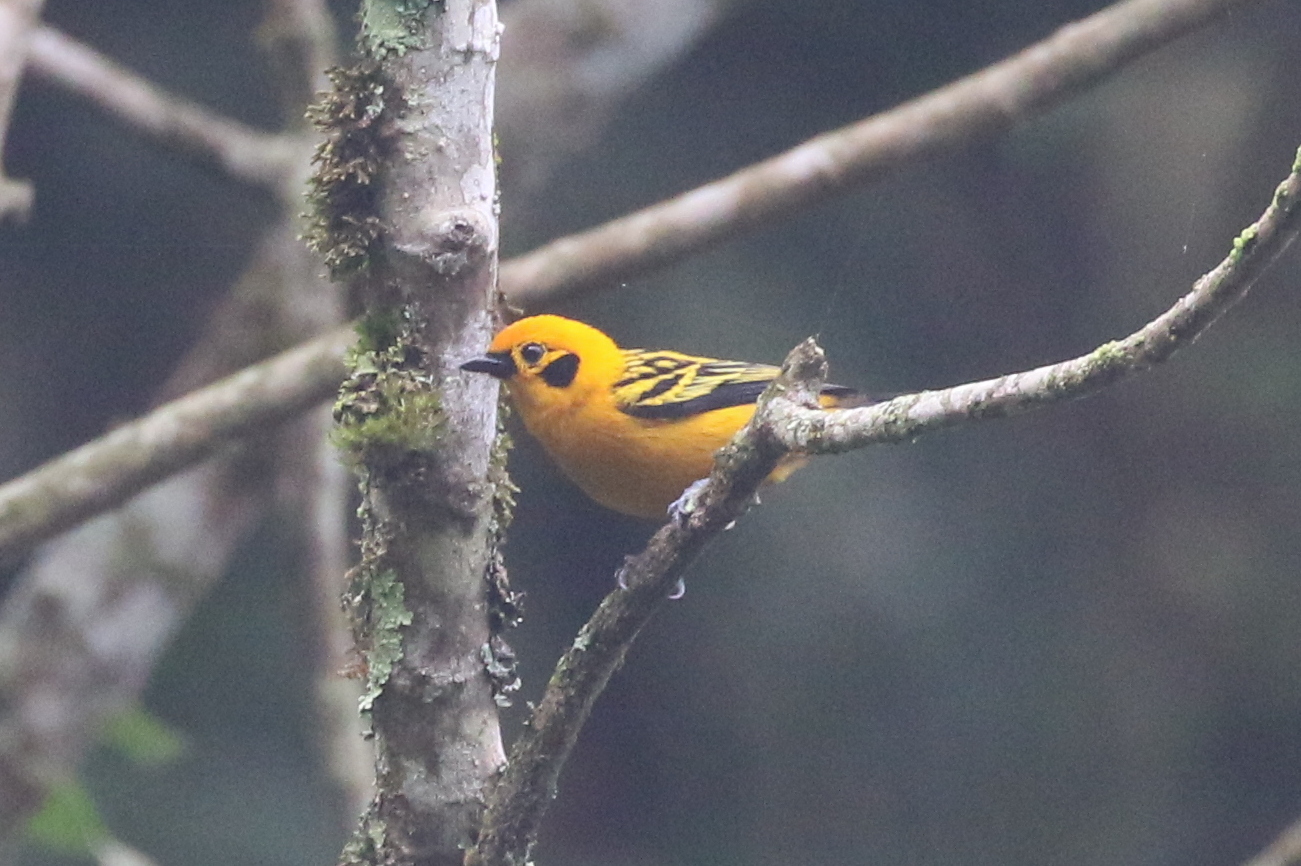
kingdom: Animalia
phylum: Chordata
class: Aves
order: Passeriformes
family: Thraupidae
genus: Tangara
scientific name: Tangara arthus
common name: Golden tanager
